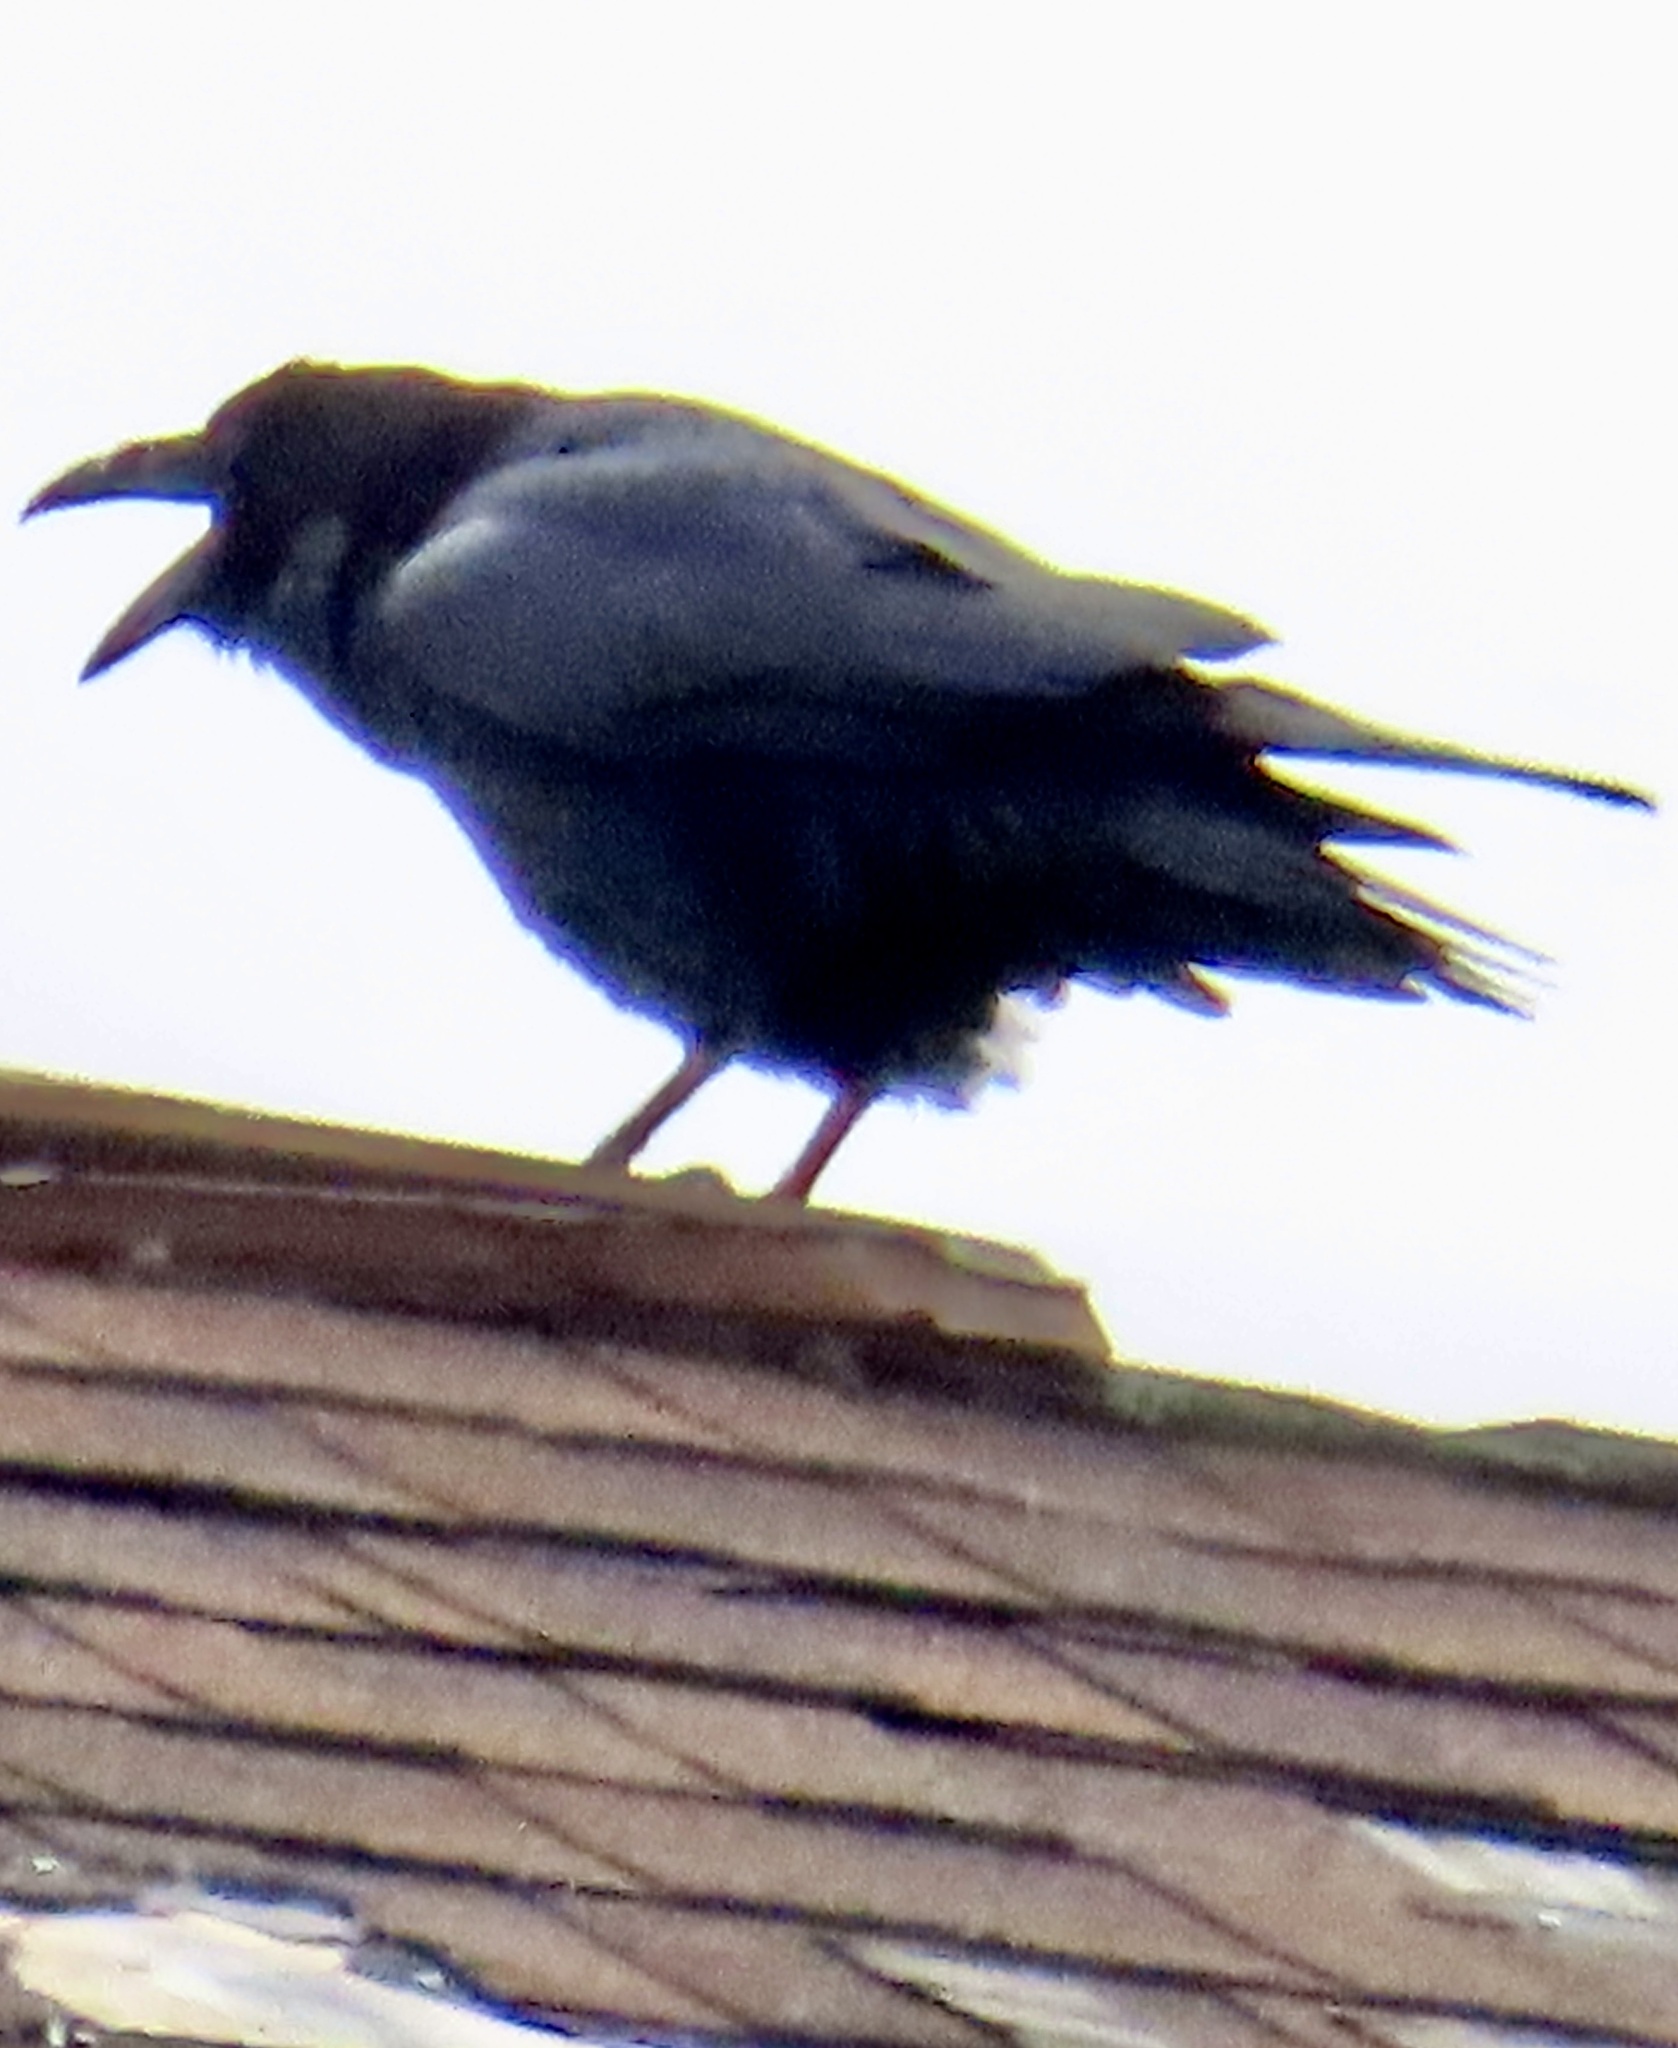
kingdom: Animalia
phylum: Chordata
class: Aves
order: Passeriformes
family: Corvidae
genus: Corvus
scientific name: Corvus corax
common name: Common raven
